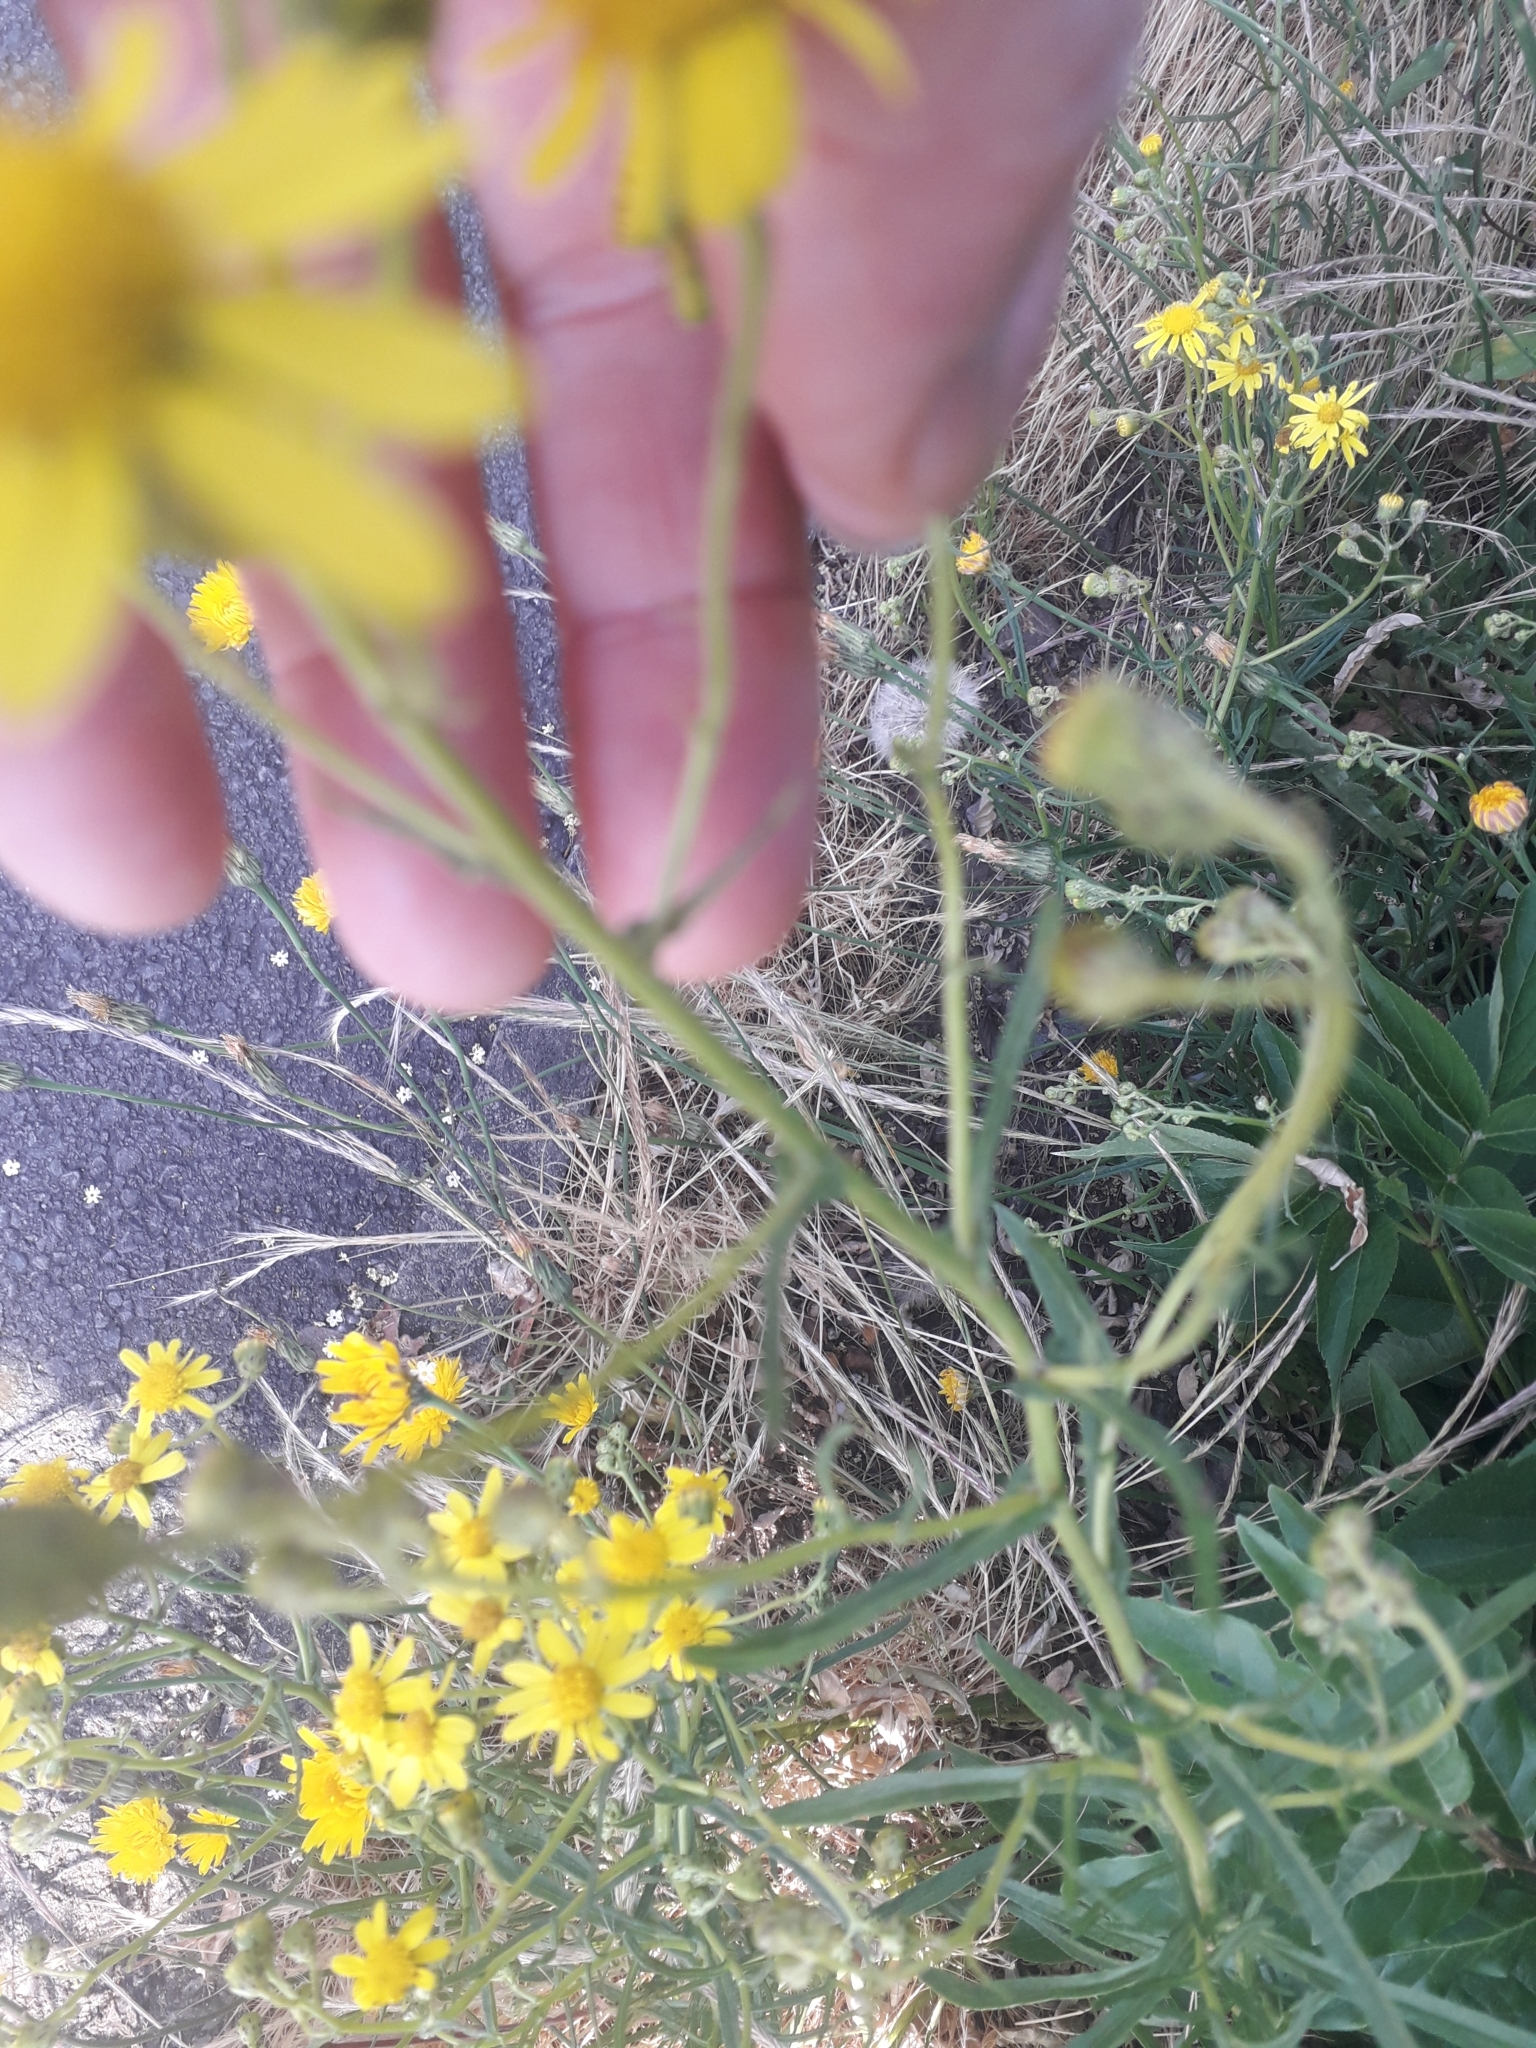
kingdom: Plantae
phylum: Tracheophyta
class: Magnoliopsida
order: Asterales
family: Asteraceae
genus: Senecio
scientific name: Senecio inaequidens
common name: Narrow-leaved ragwort
